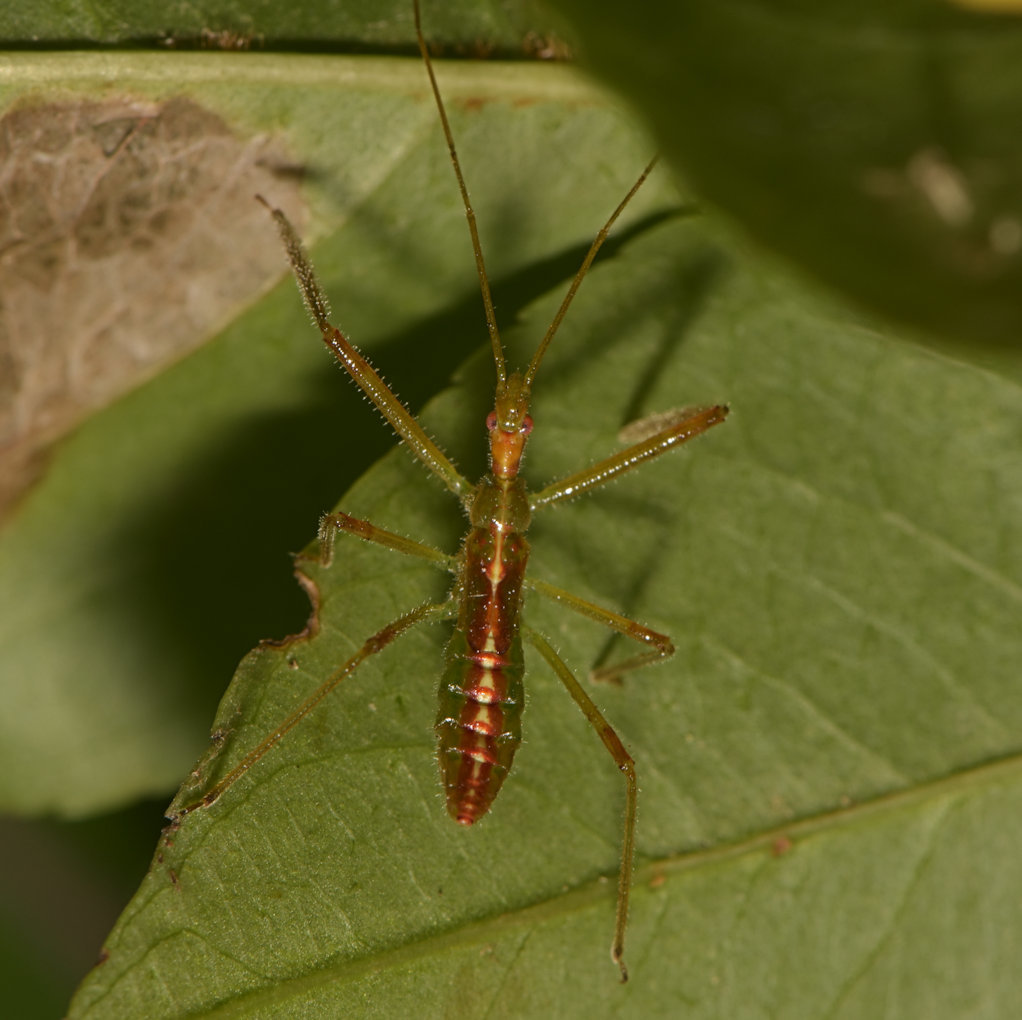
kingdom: Animalia
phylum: Arthropoda
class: Insecta
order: Hemiptera
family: Reduviidae
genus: Zelus
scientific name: Zelus luridus
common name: Pale green assassin bug
